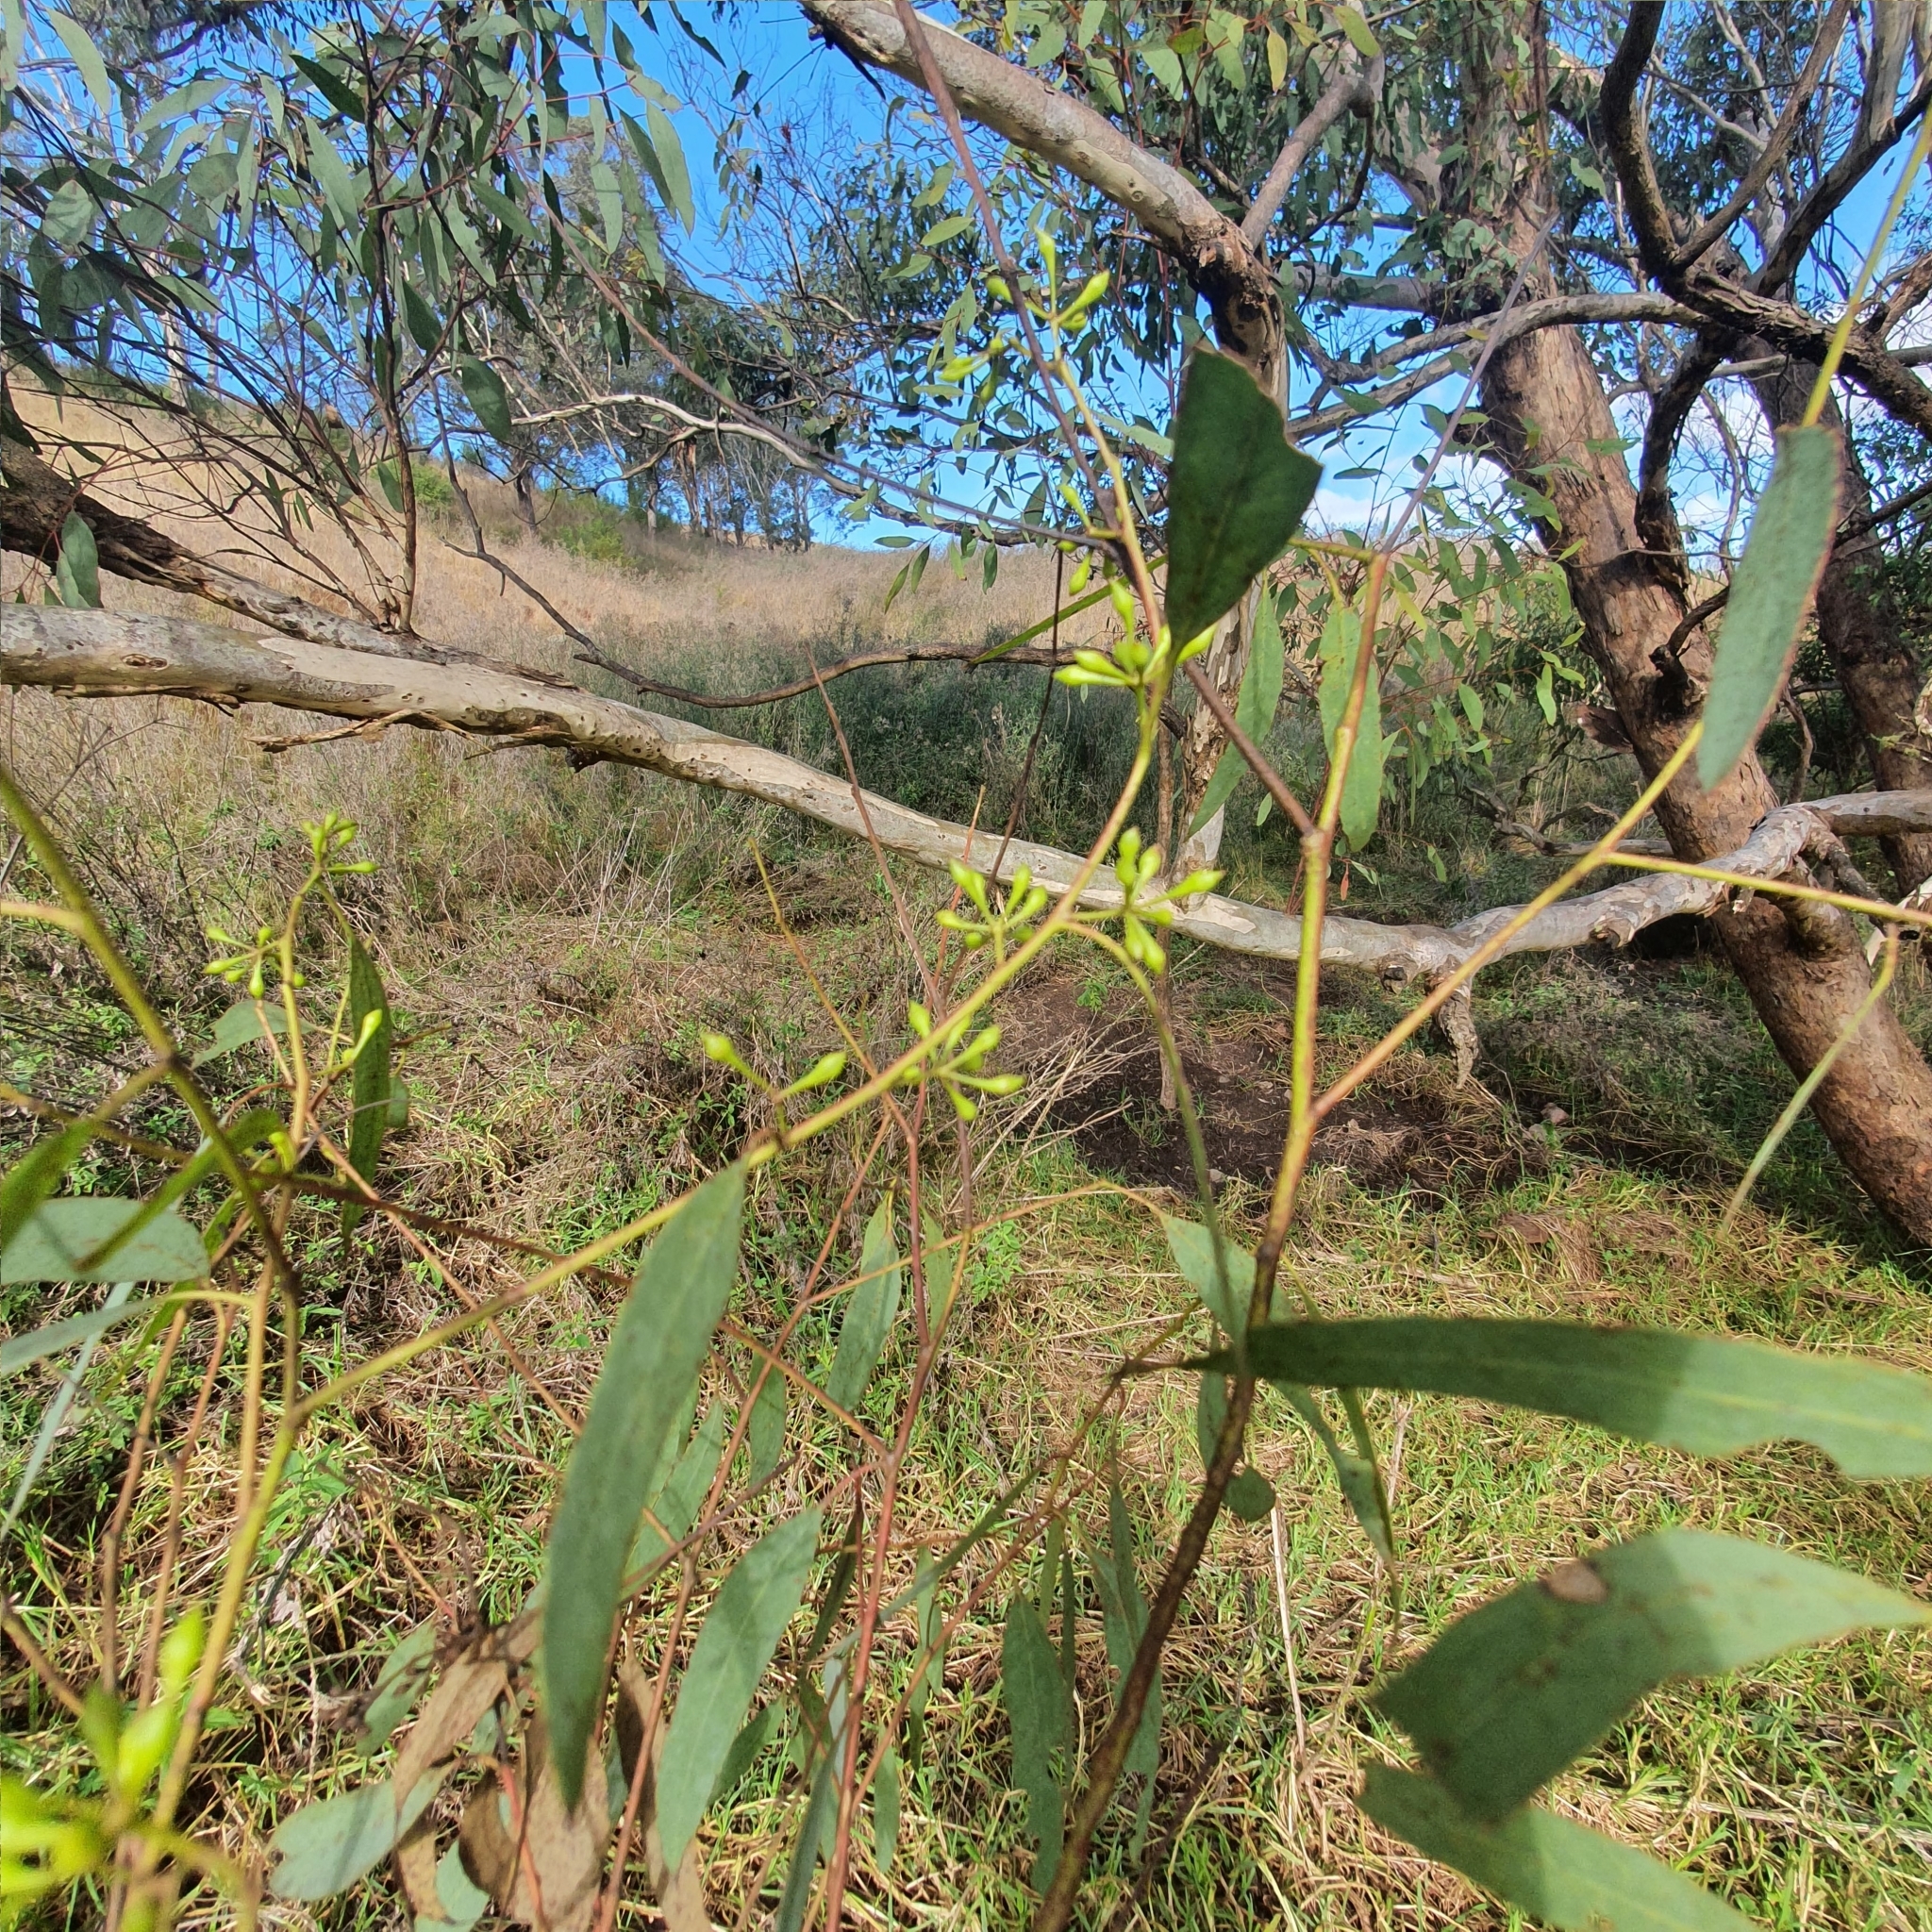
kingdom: Plantae
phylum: Tracheophyta
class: Magnoliopsida
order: Myrtales
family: Myrtaceae
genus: Eucalyptus
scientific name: Eucalyptus melliodora
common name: Yellow ironbox
